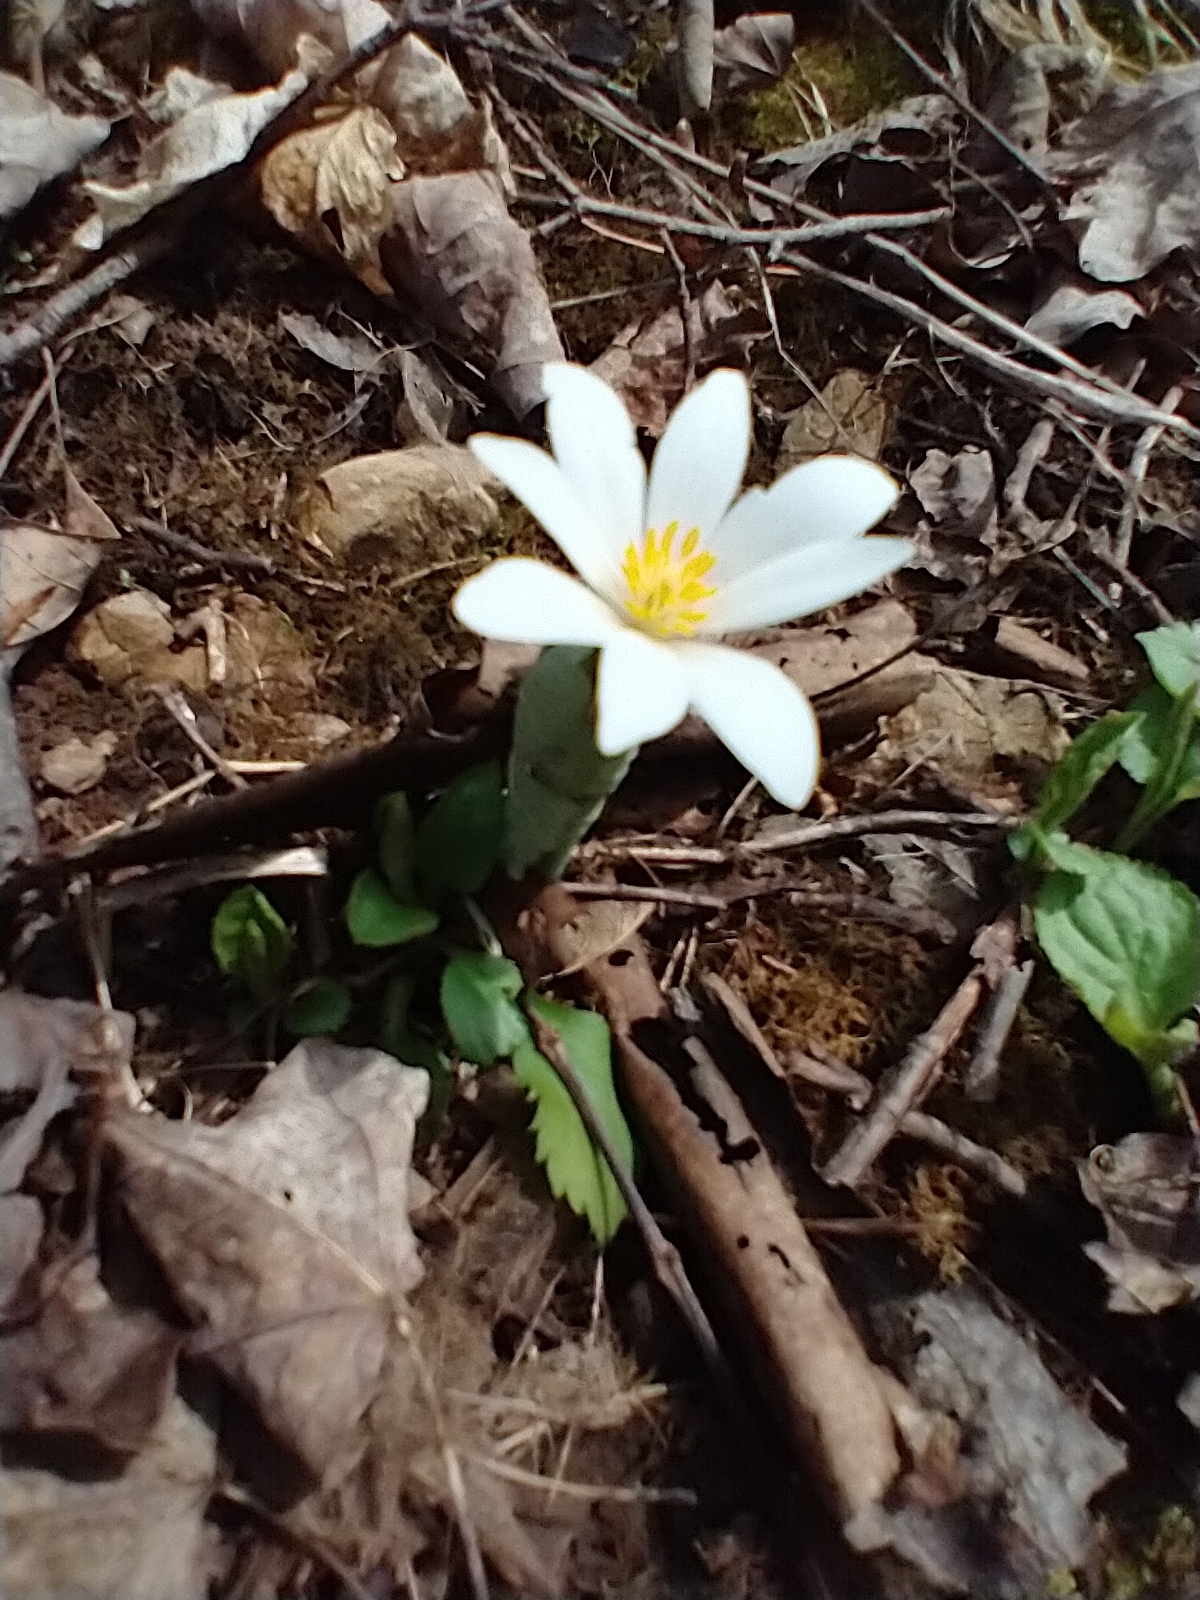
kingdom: Plantae
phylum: Tracheophyta
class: Magnoliopsida
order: Ranunculales
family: Papaveraceae
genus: Sanguinaria
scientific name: Sanguinaria canadensis
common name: Bloodroot
